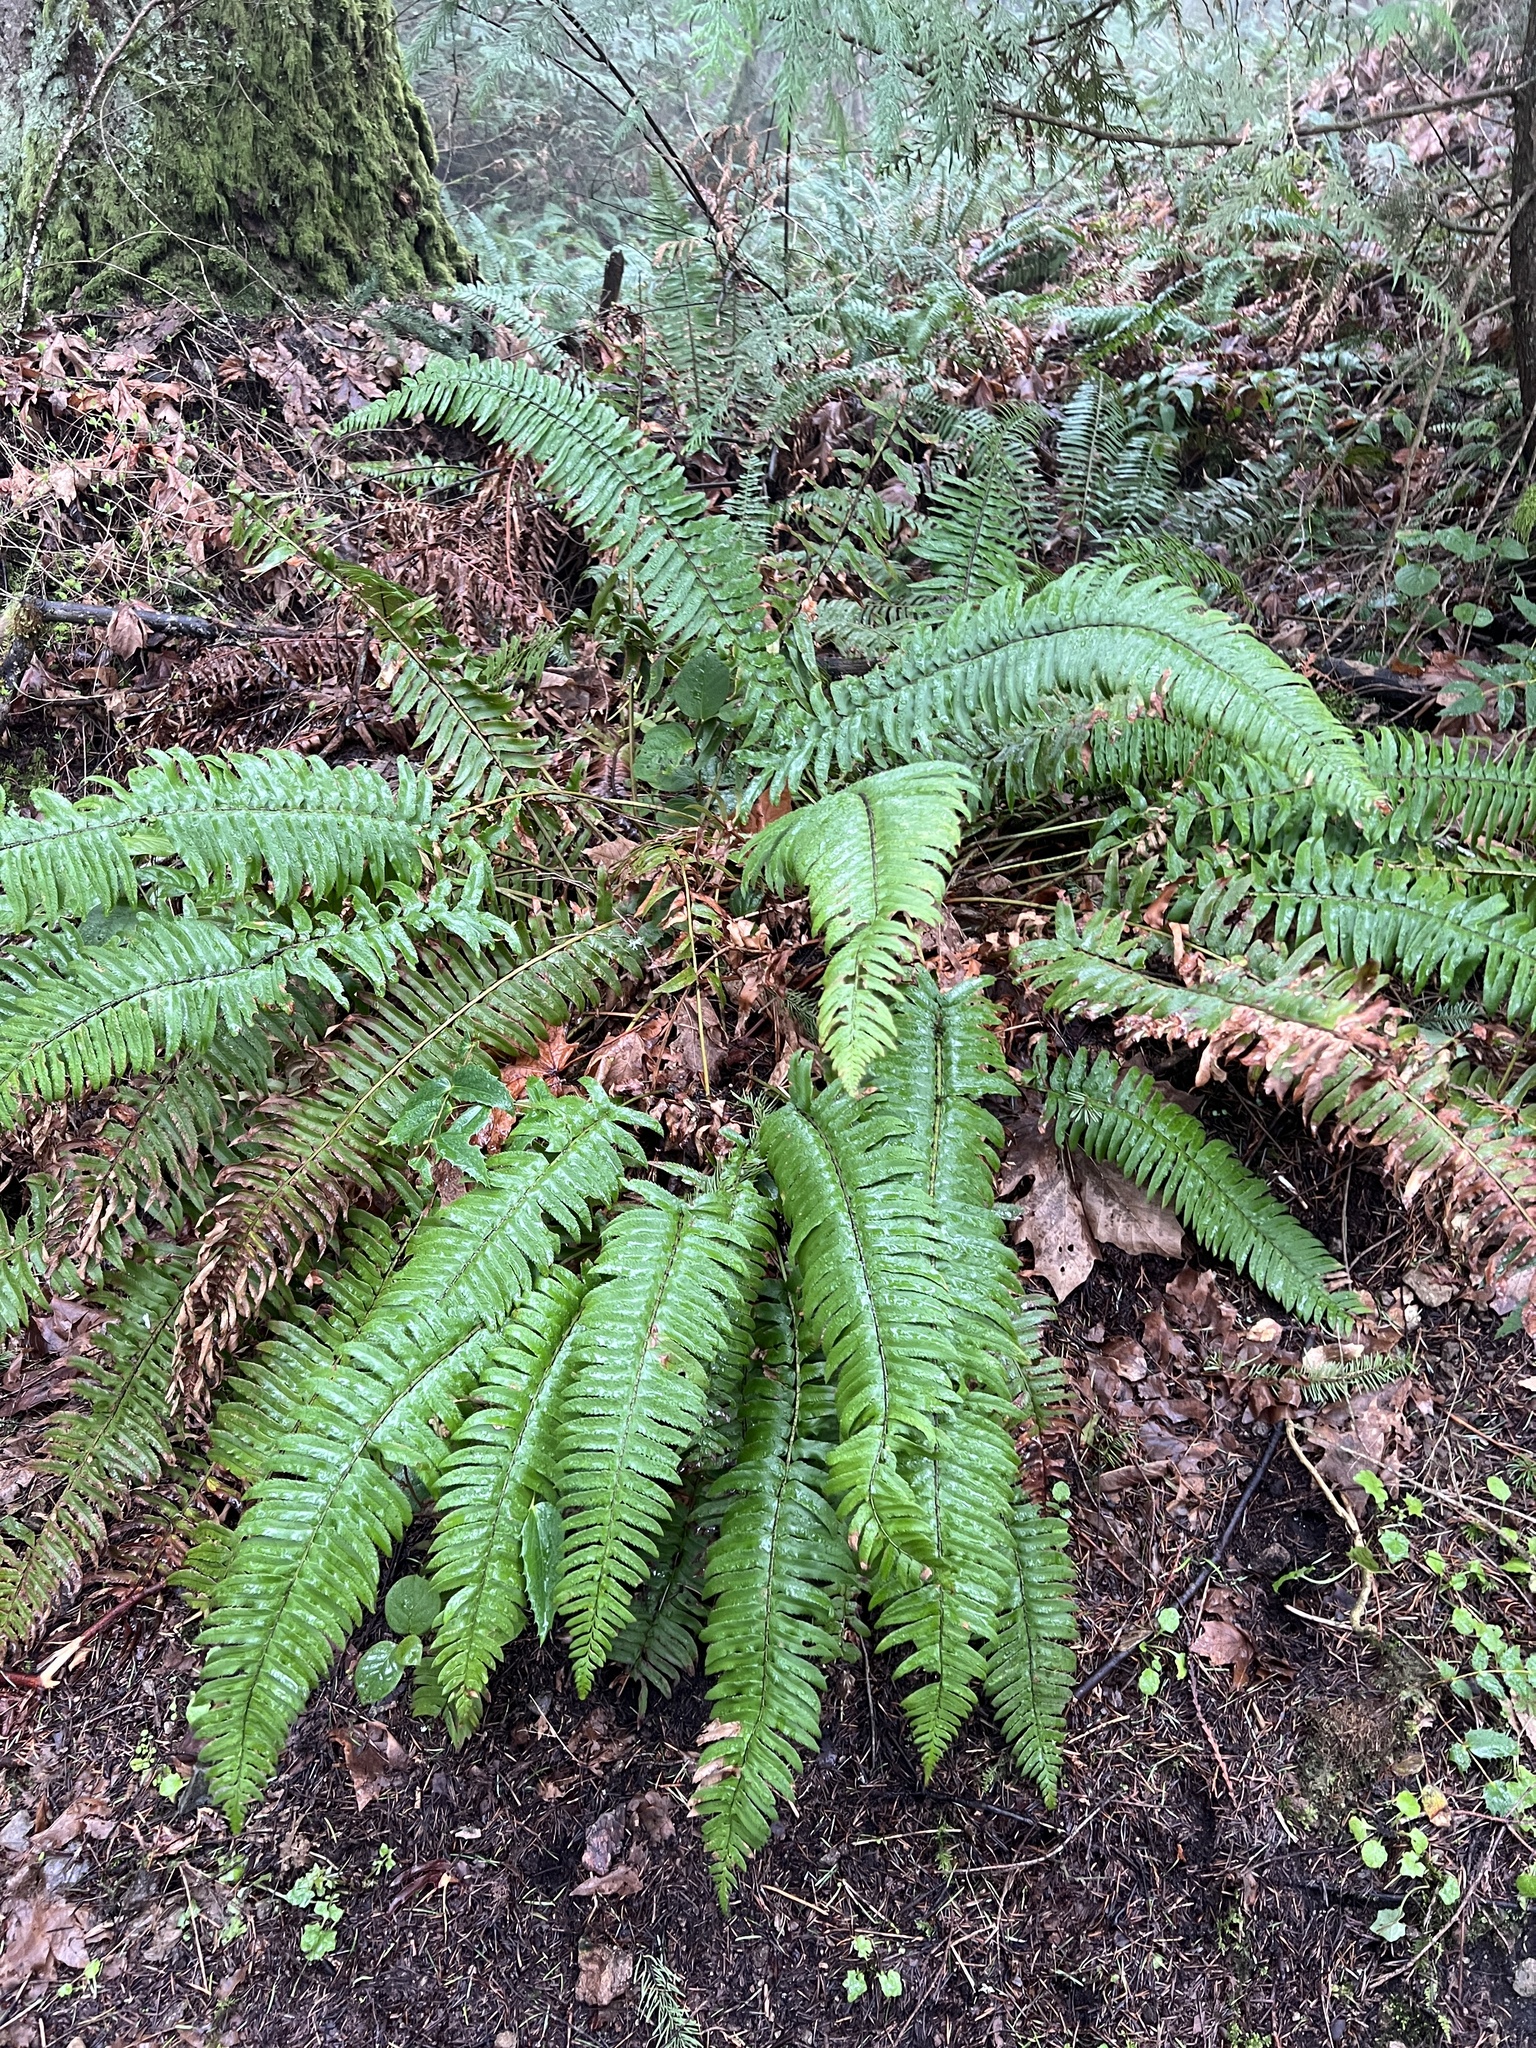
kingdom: Plantae
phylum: Tracheophyta
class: Polypodiopsida
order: Polypodiales
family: Dryopteridaceae
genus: Polystichum
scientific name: Polystichum munitum
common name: Western sword-fern
